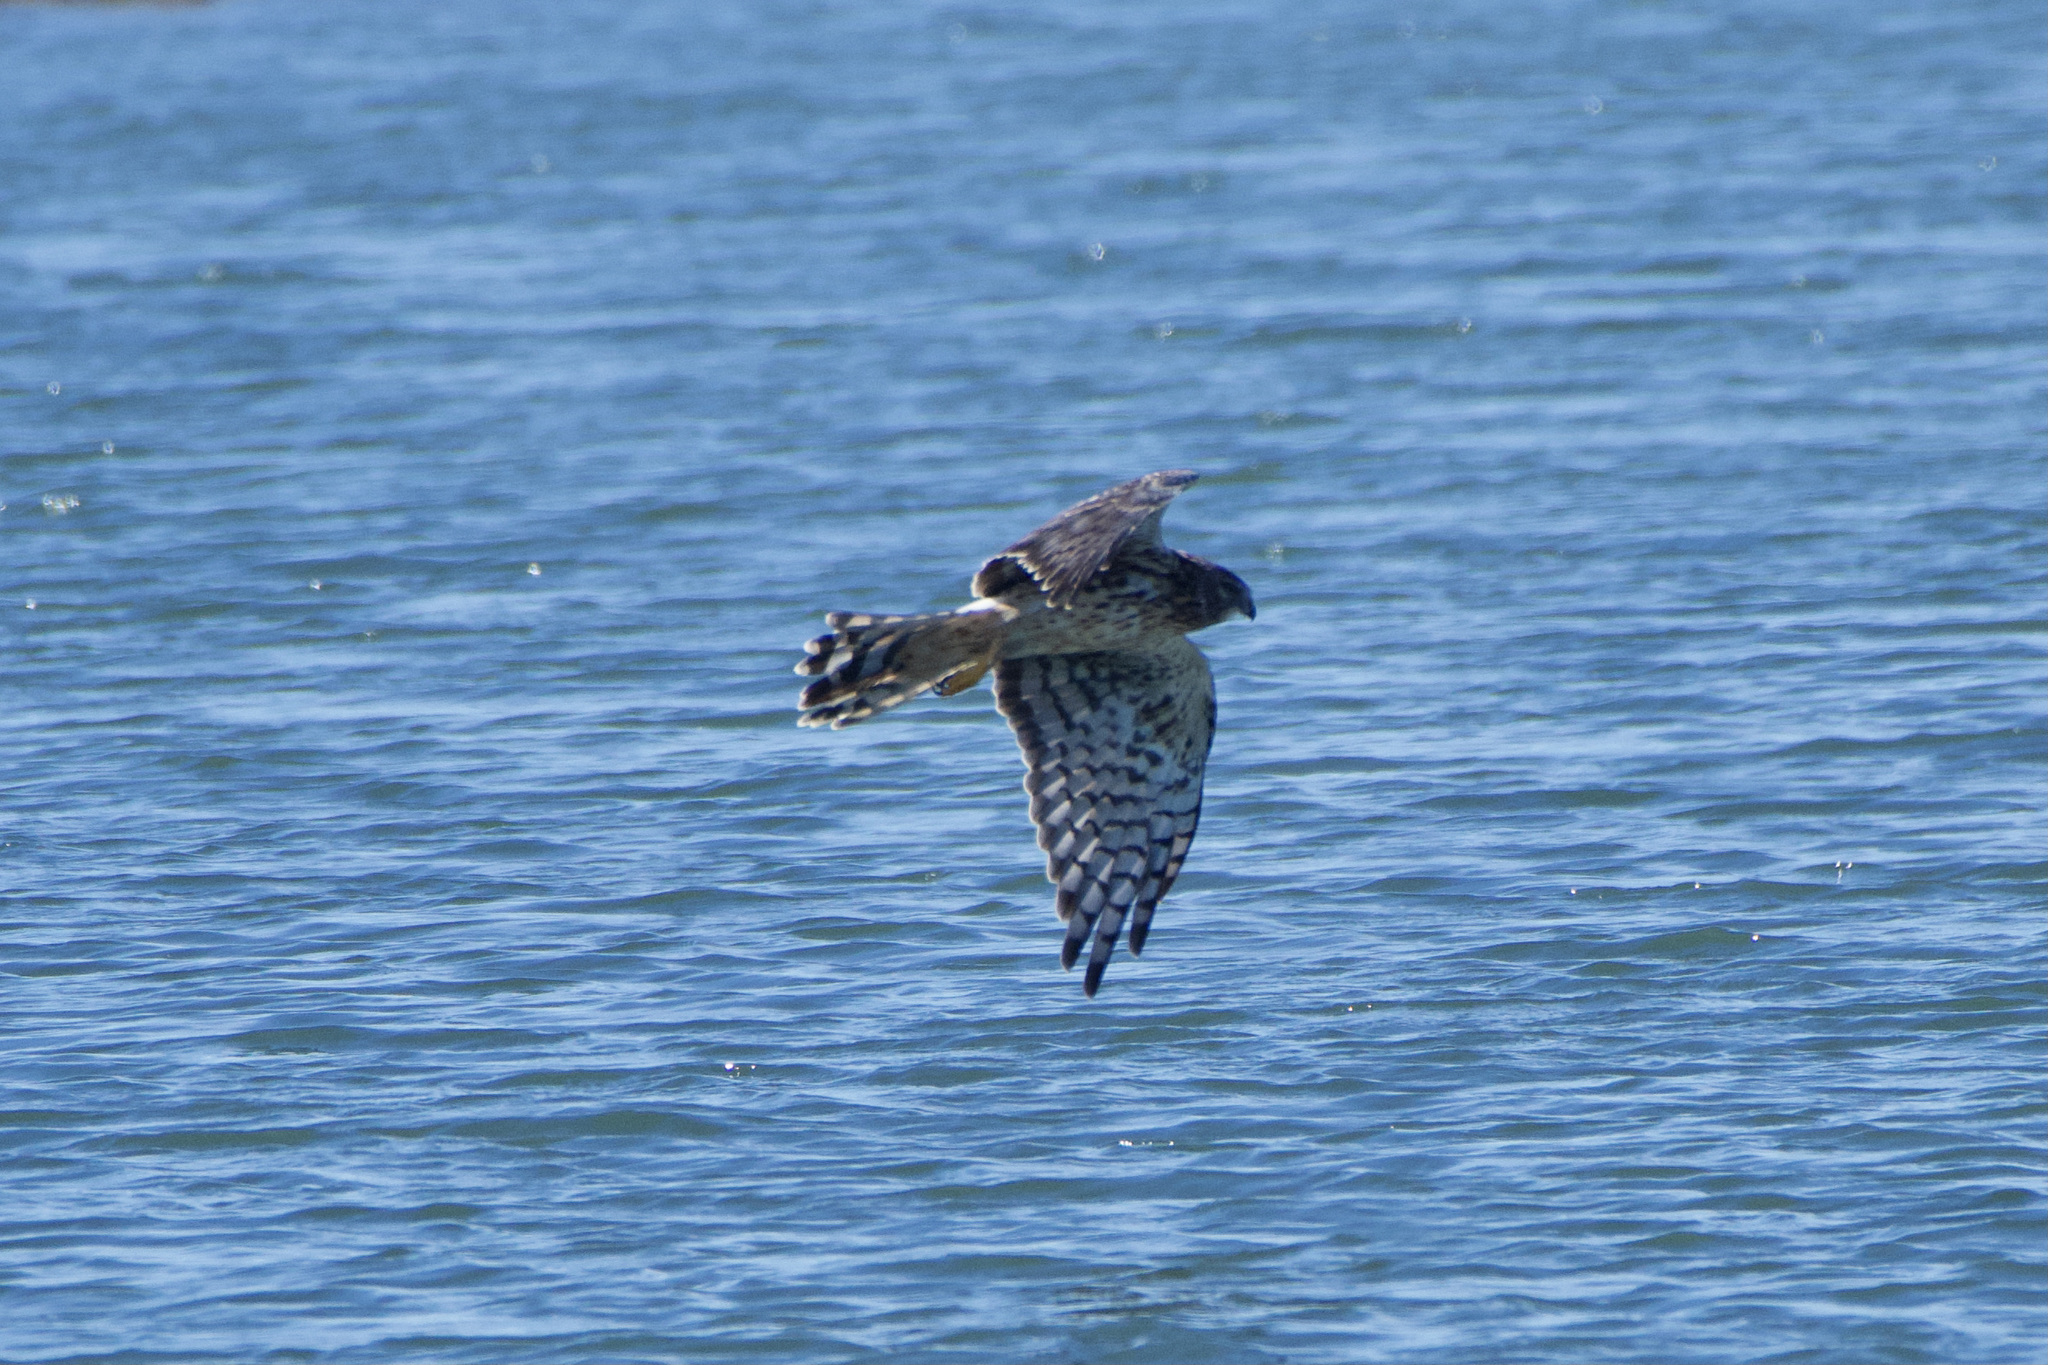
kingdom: Animalia
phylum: Chordata
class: Aves
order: Accipitriformes
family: Accipitridae
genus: Circus
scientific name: Circus cyaneus
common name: Hen harrier
